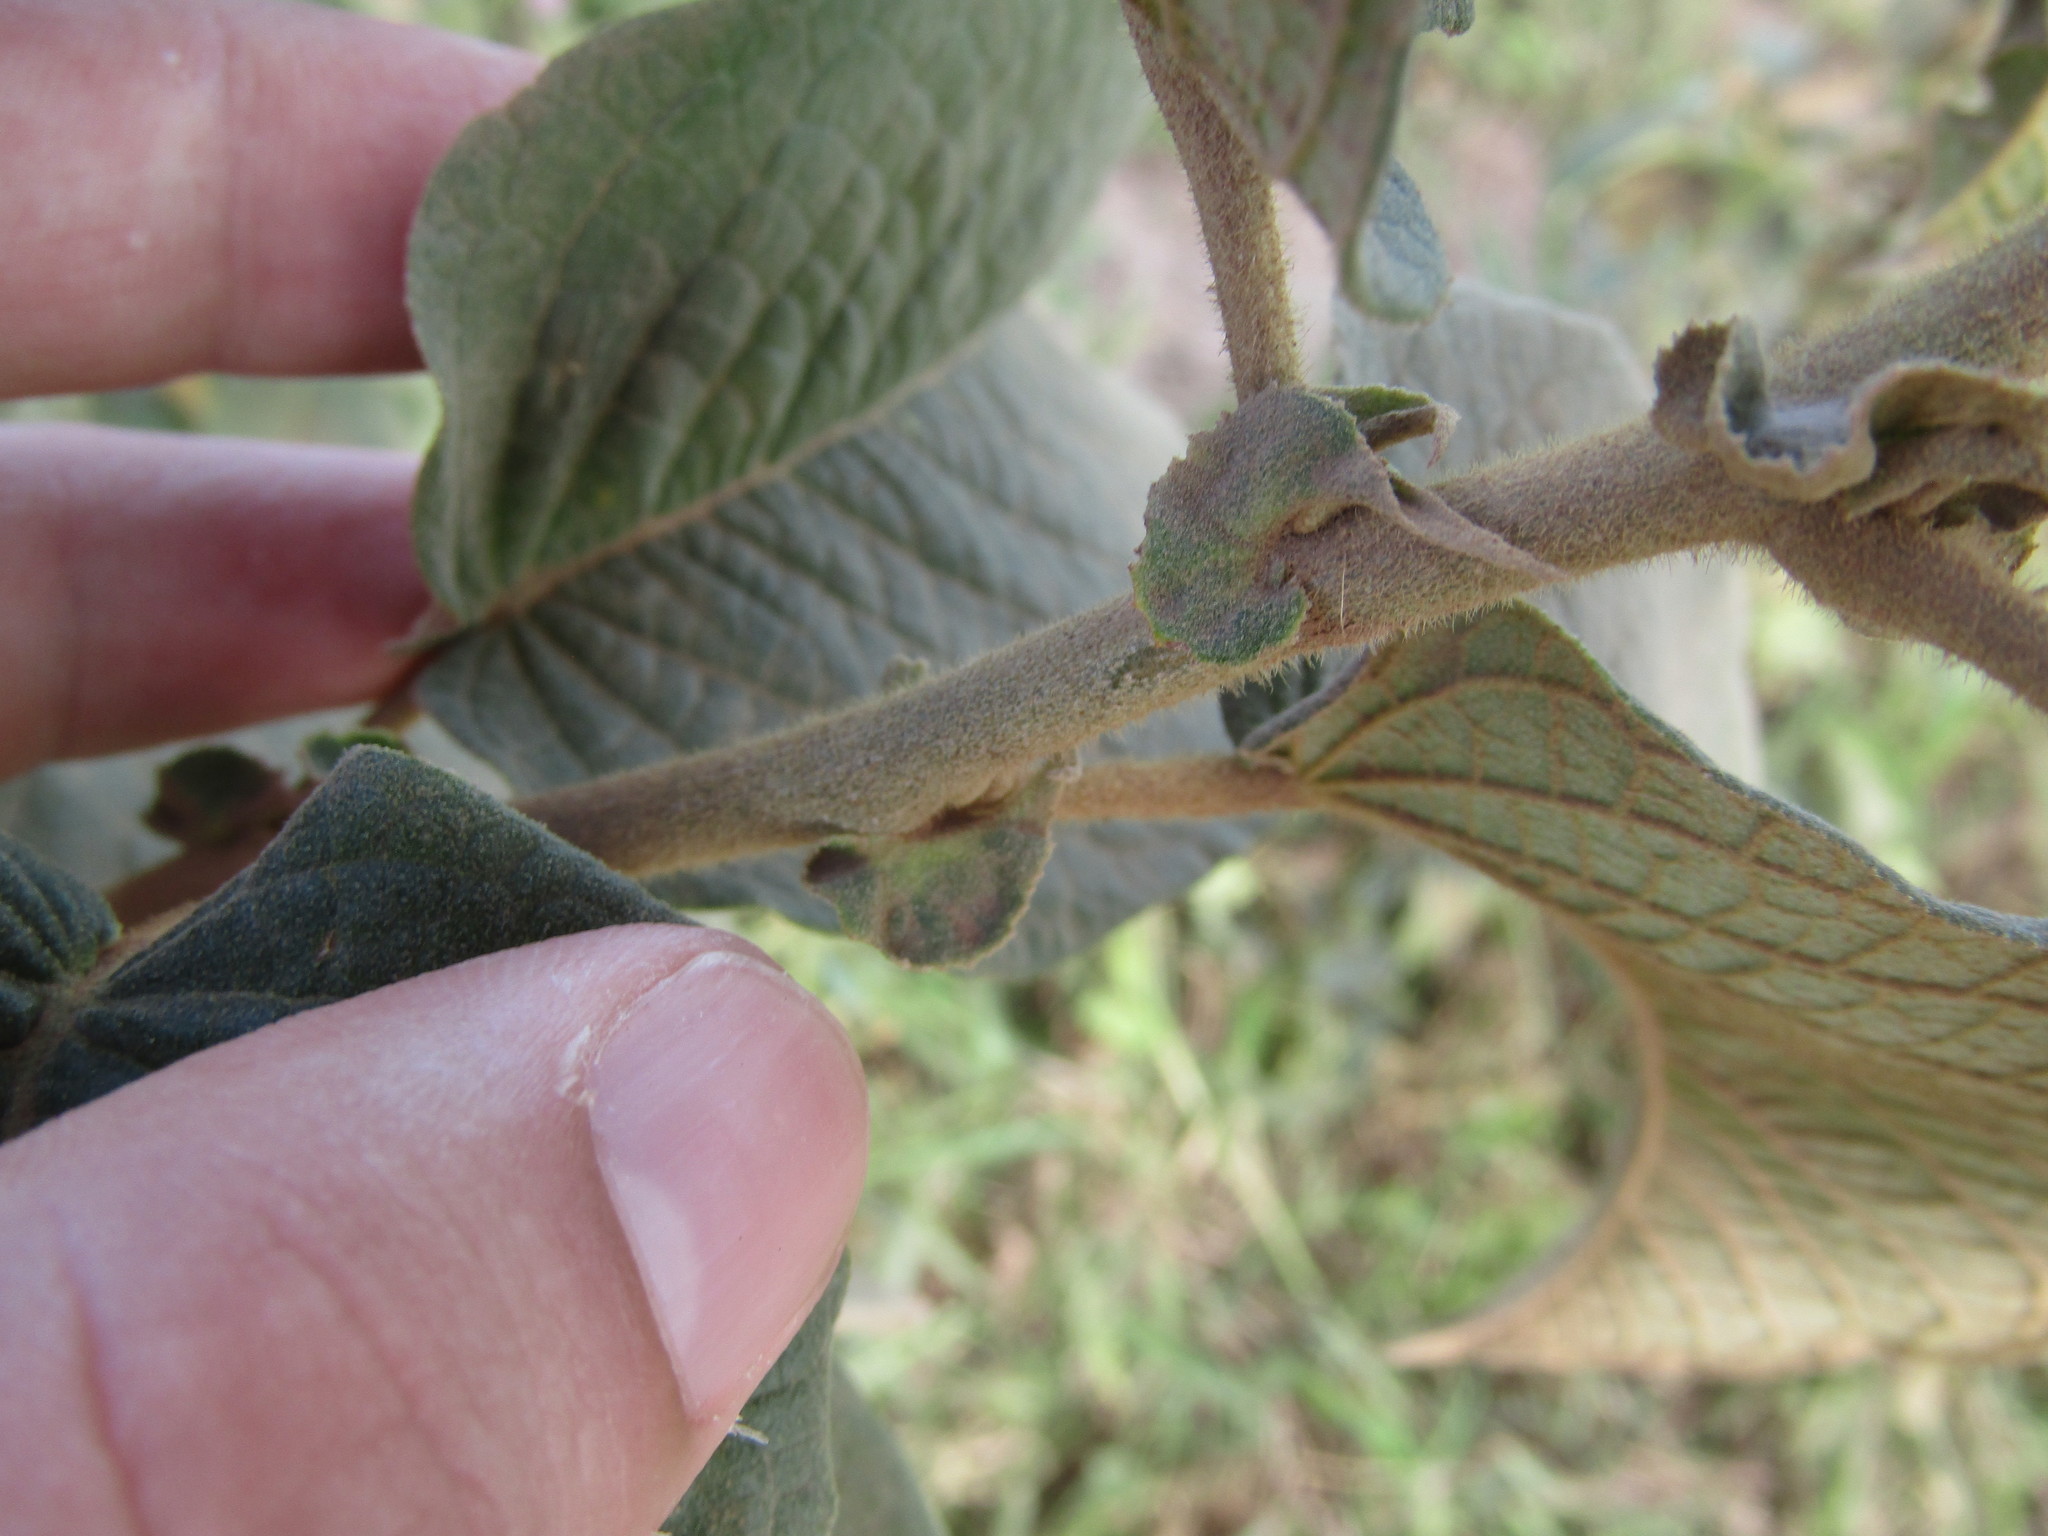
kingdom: Plantae
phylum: Tracheophyta
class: Magnoliopsida
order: Malpighiales
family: Euphorbiaceae
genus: Croton
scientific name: Croton blanchetianus
